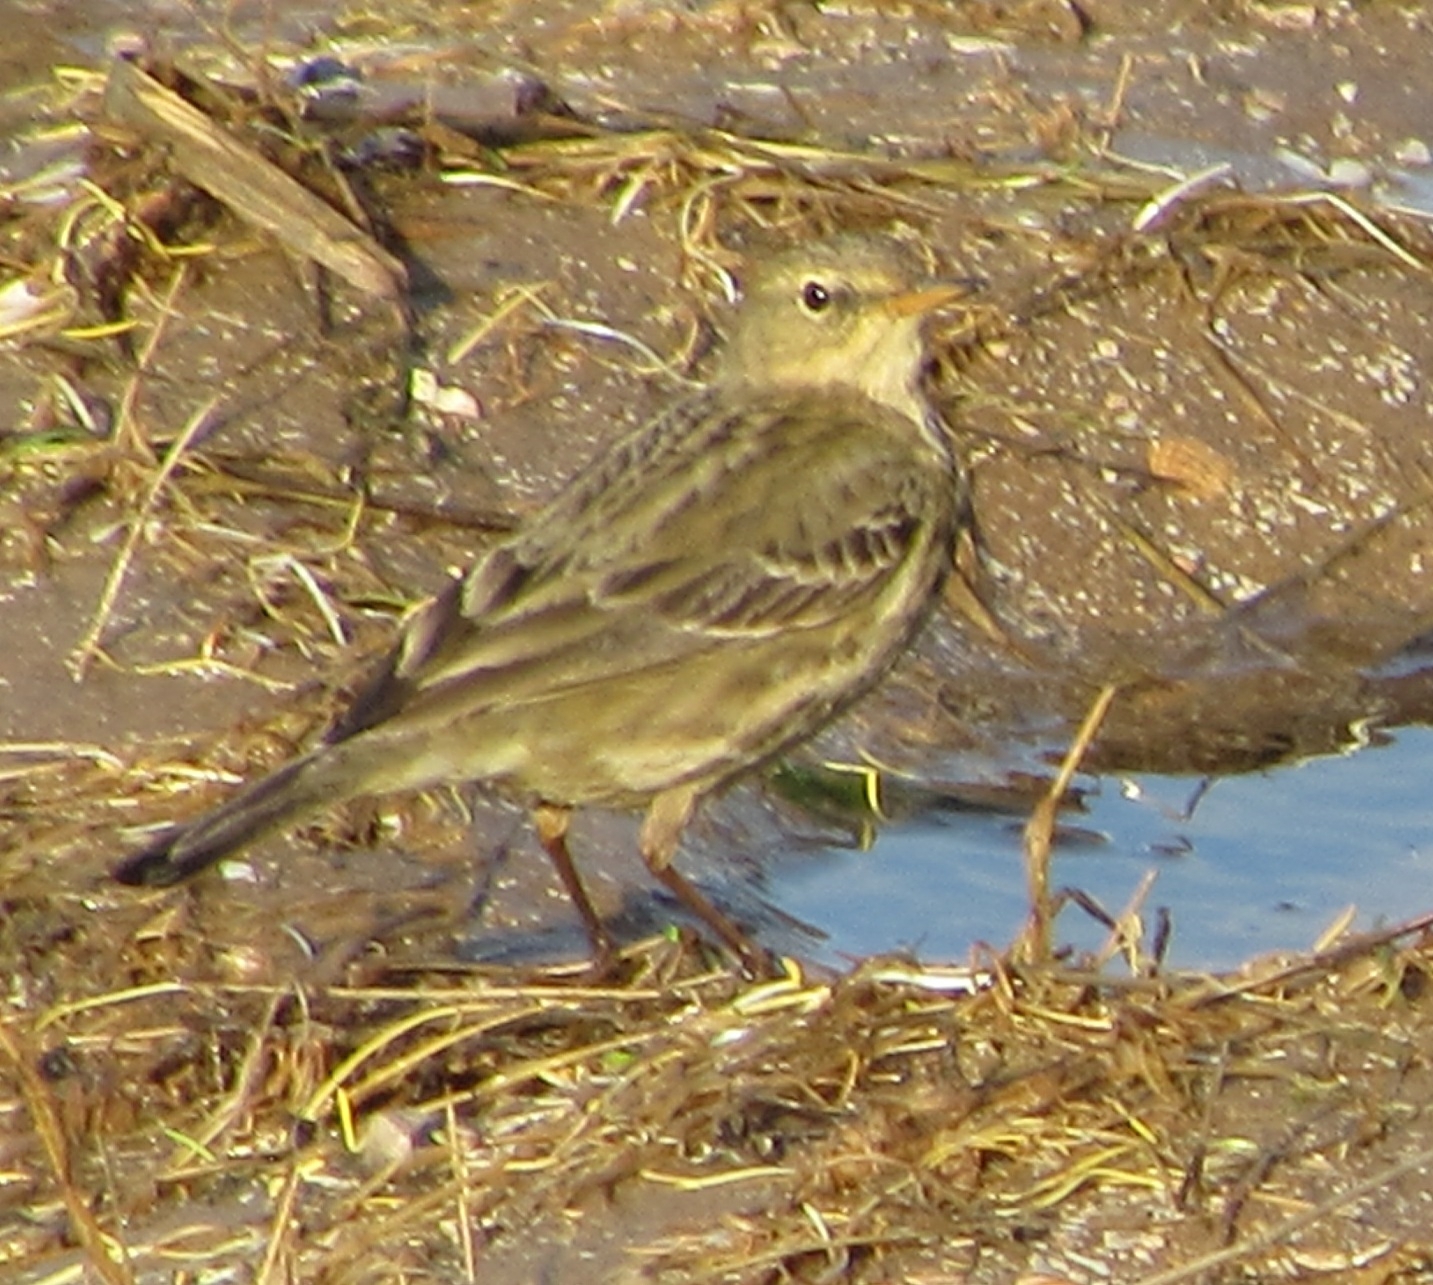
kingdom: Animalia
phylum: Chordata
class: Aves
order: Passeriformes
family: Motacillidae
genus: Anthus
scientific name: Anthus petrosus
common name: Eurasian rock pipit
